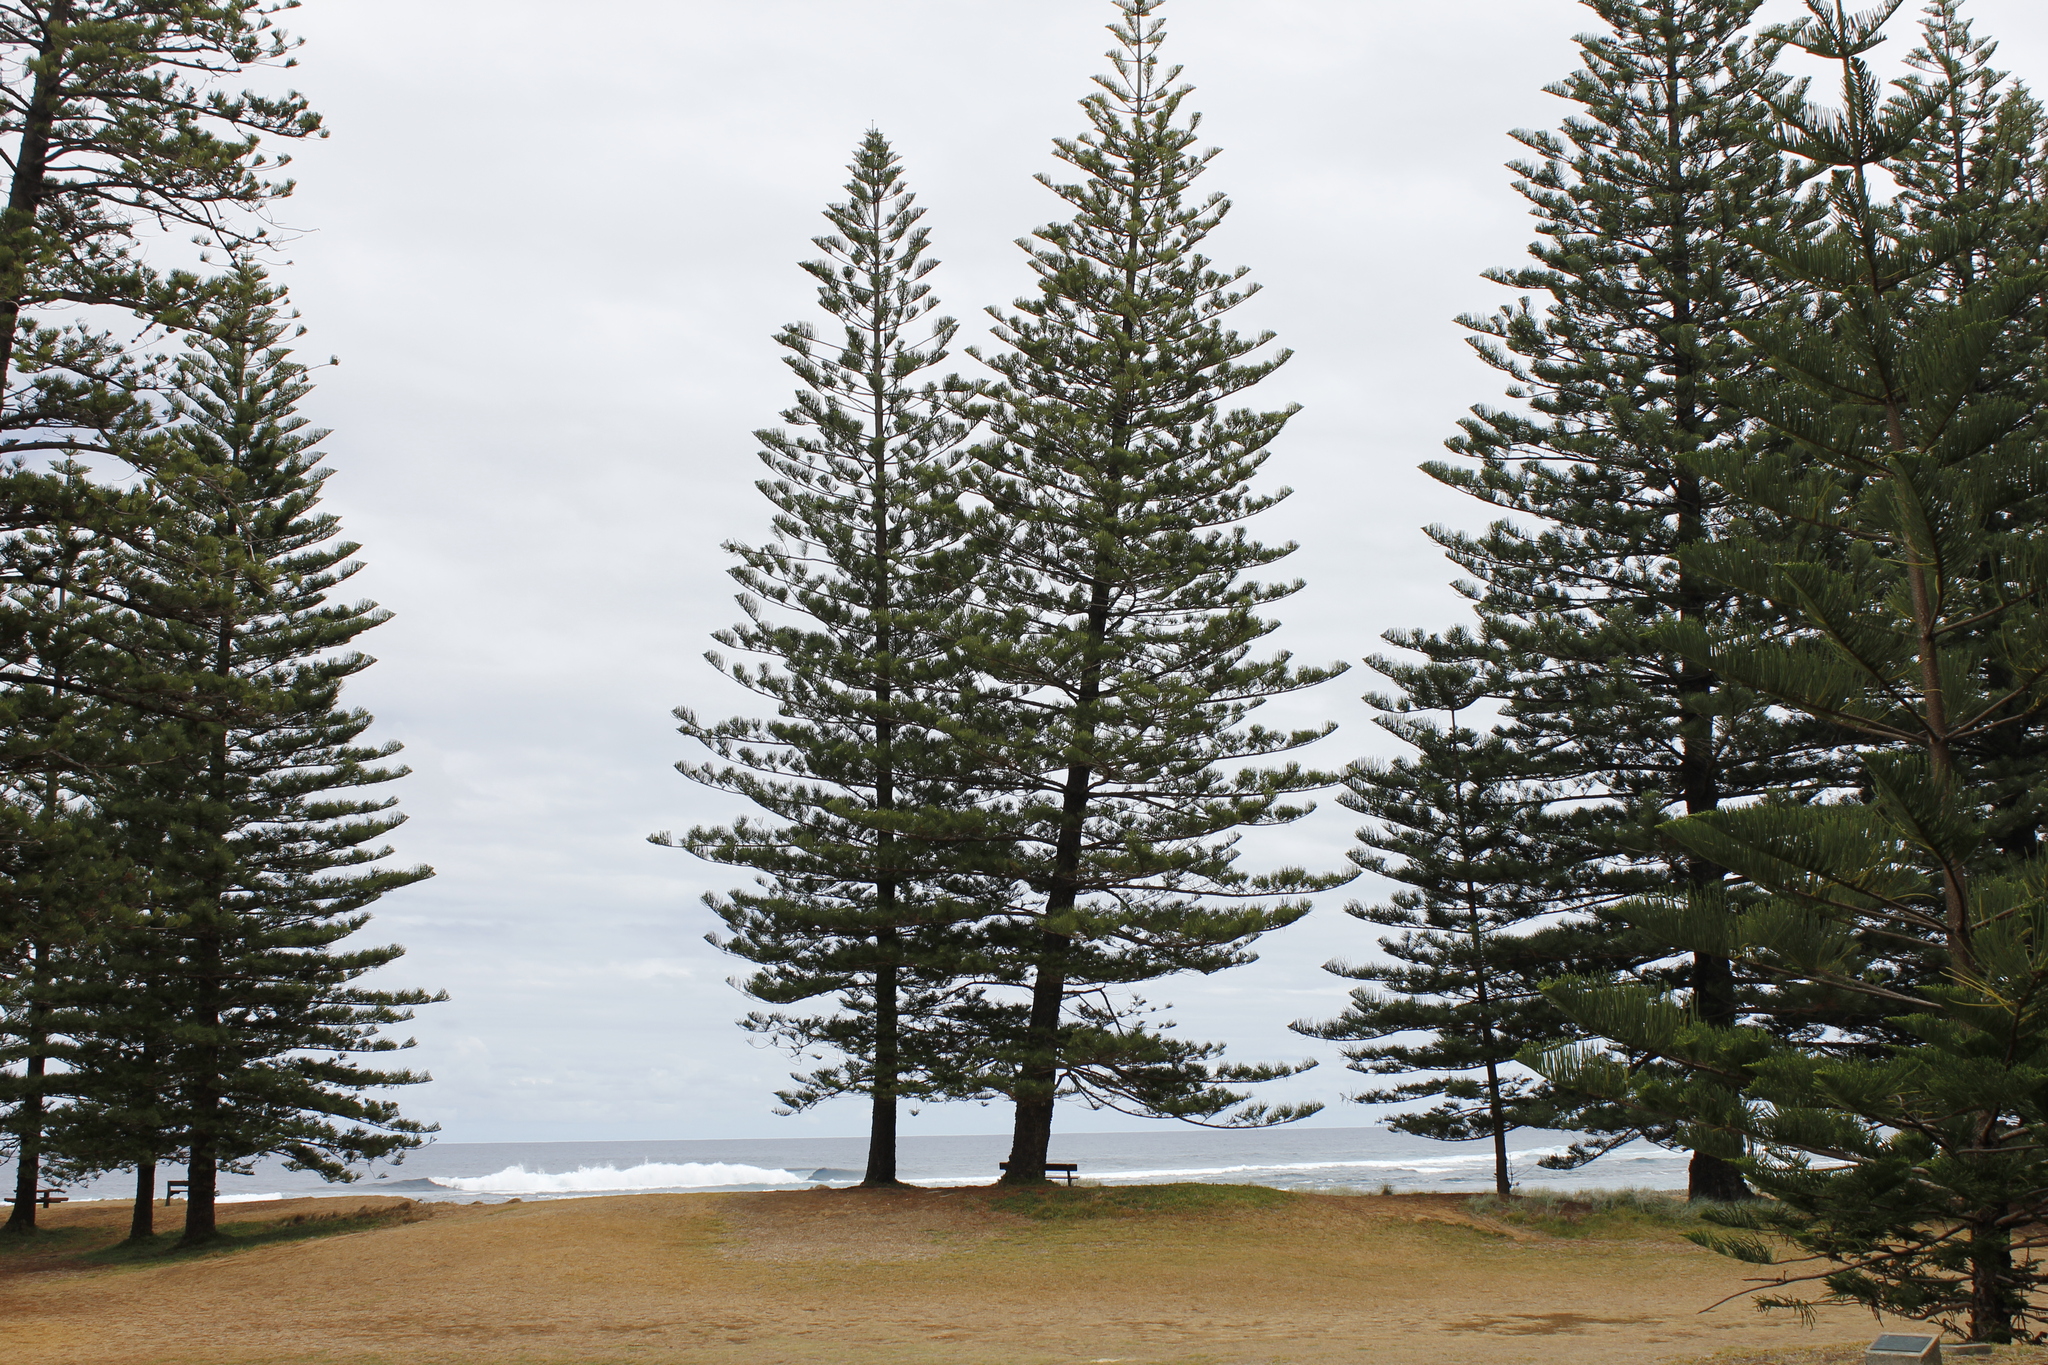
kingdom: Plantae
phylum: Tracheophyta
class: Pinopsida
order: Pinales
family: Araucariaceae
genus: Araucaria
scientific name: Araucaria heterophylla
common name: Norfolk island pine
